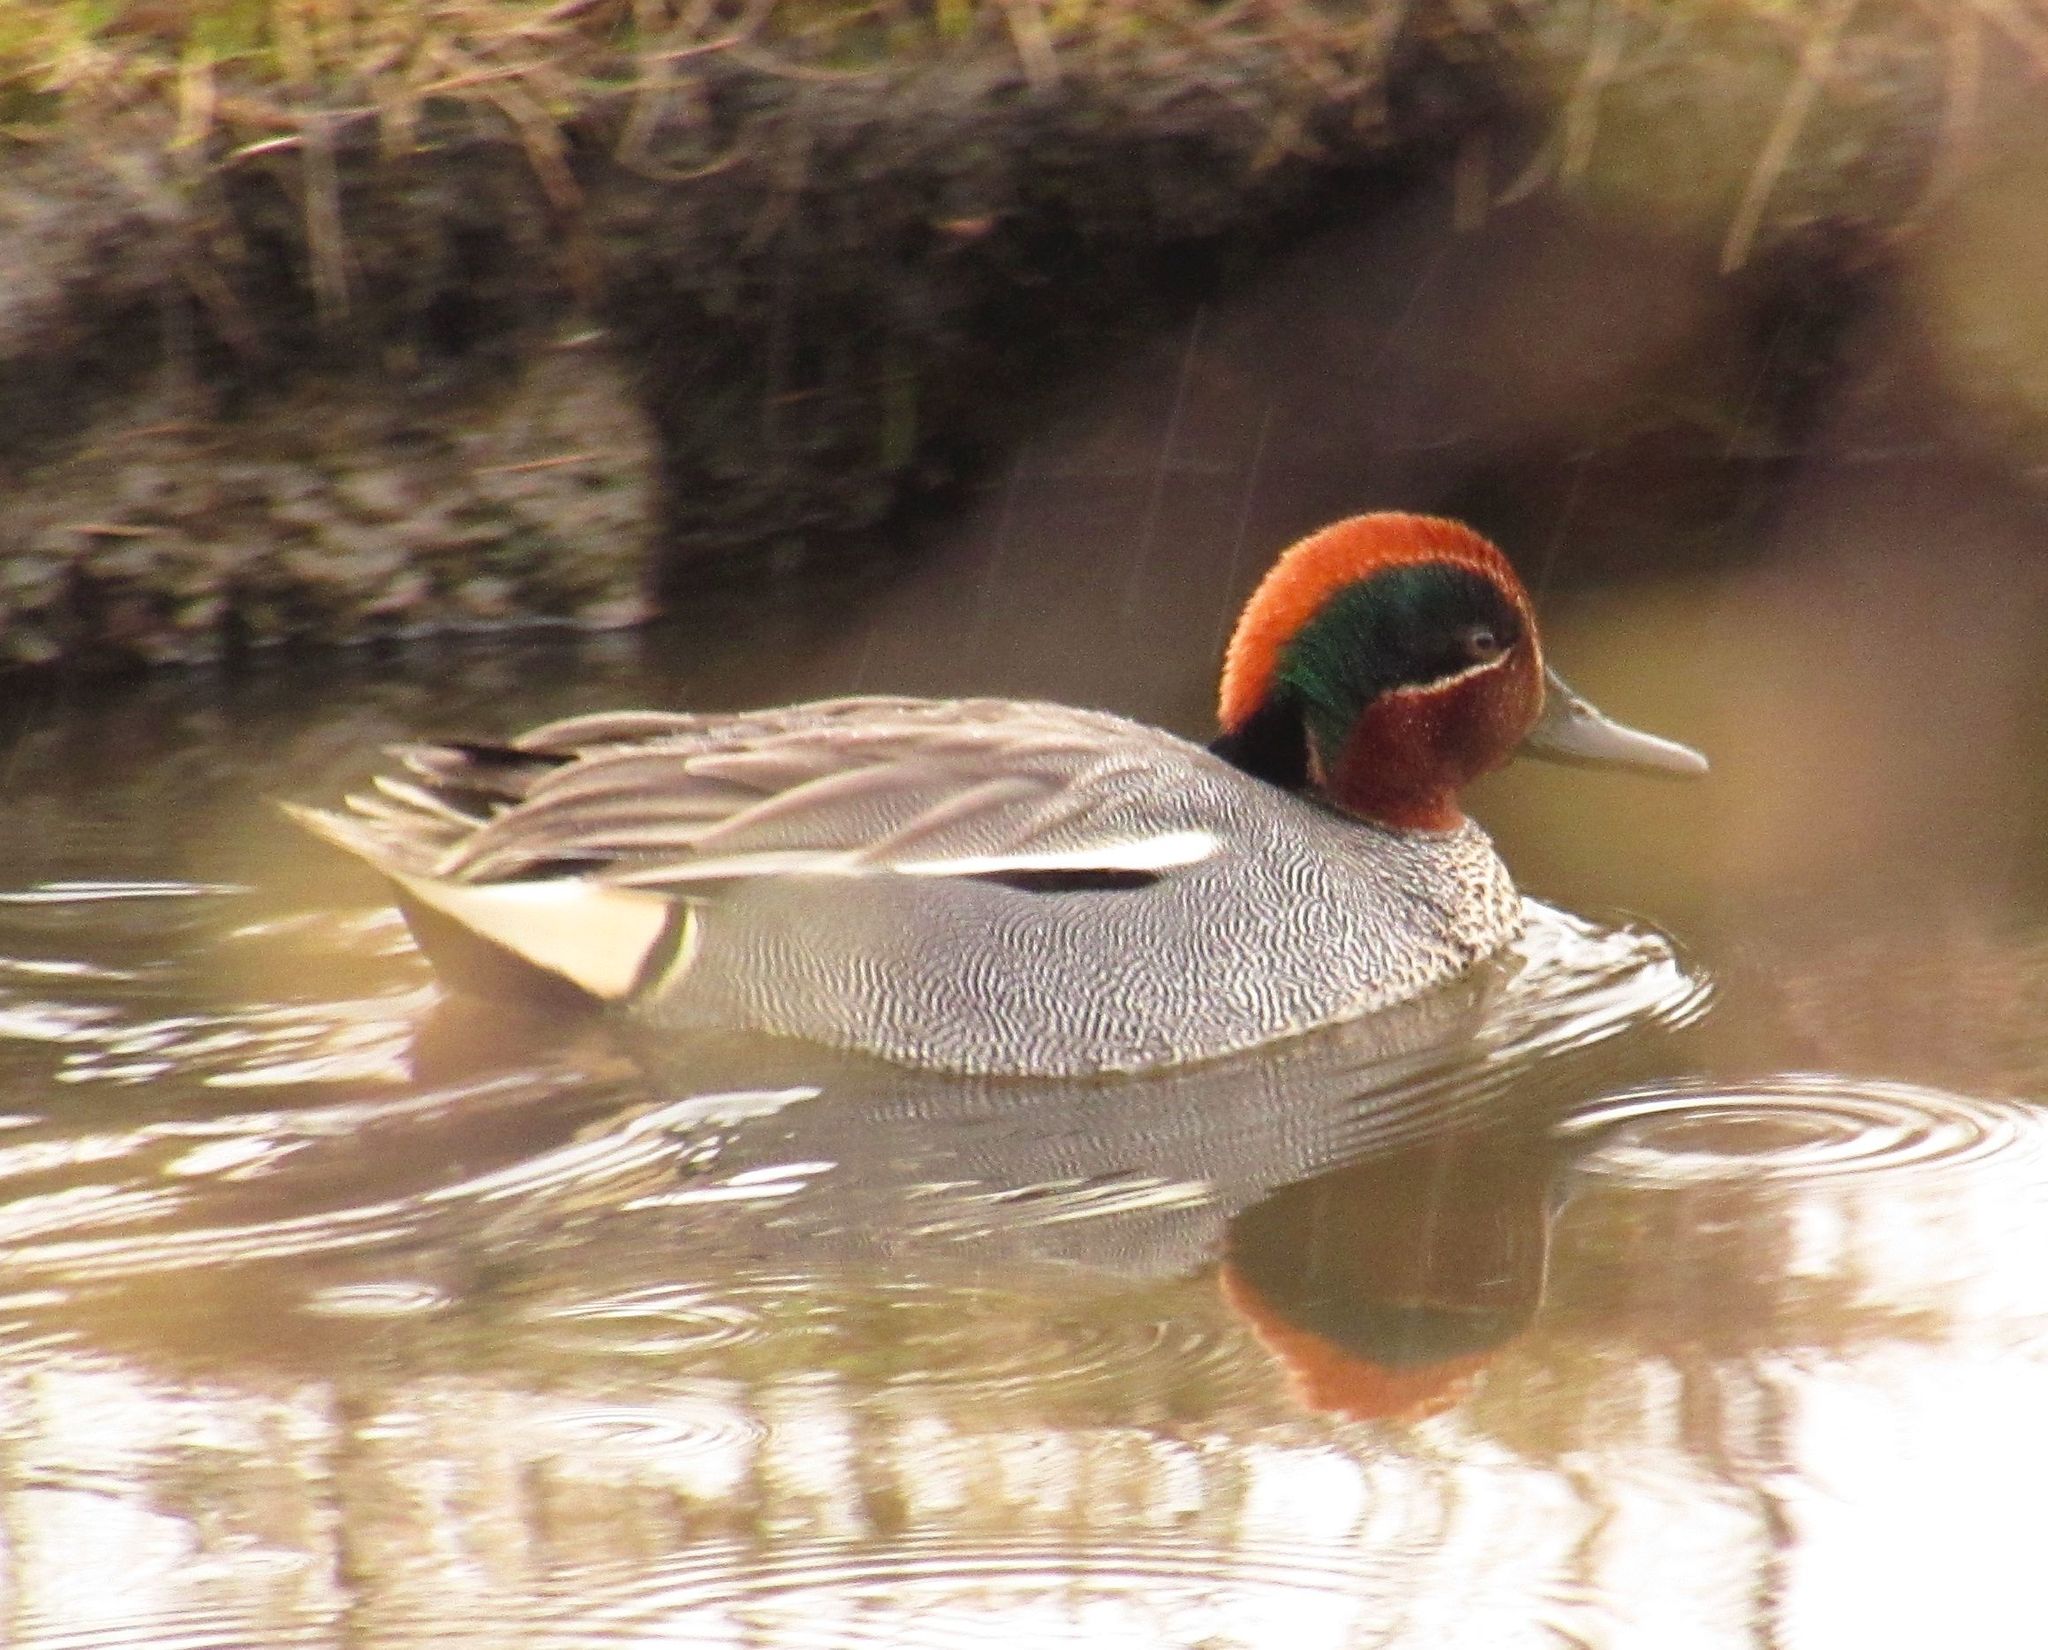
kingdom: Animalia
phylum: Chordata
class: Aves
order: Anseriformes
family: Anatidae
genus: Anas
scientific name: Anas crecca
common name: Eurasian teal
